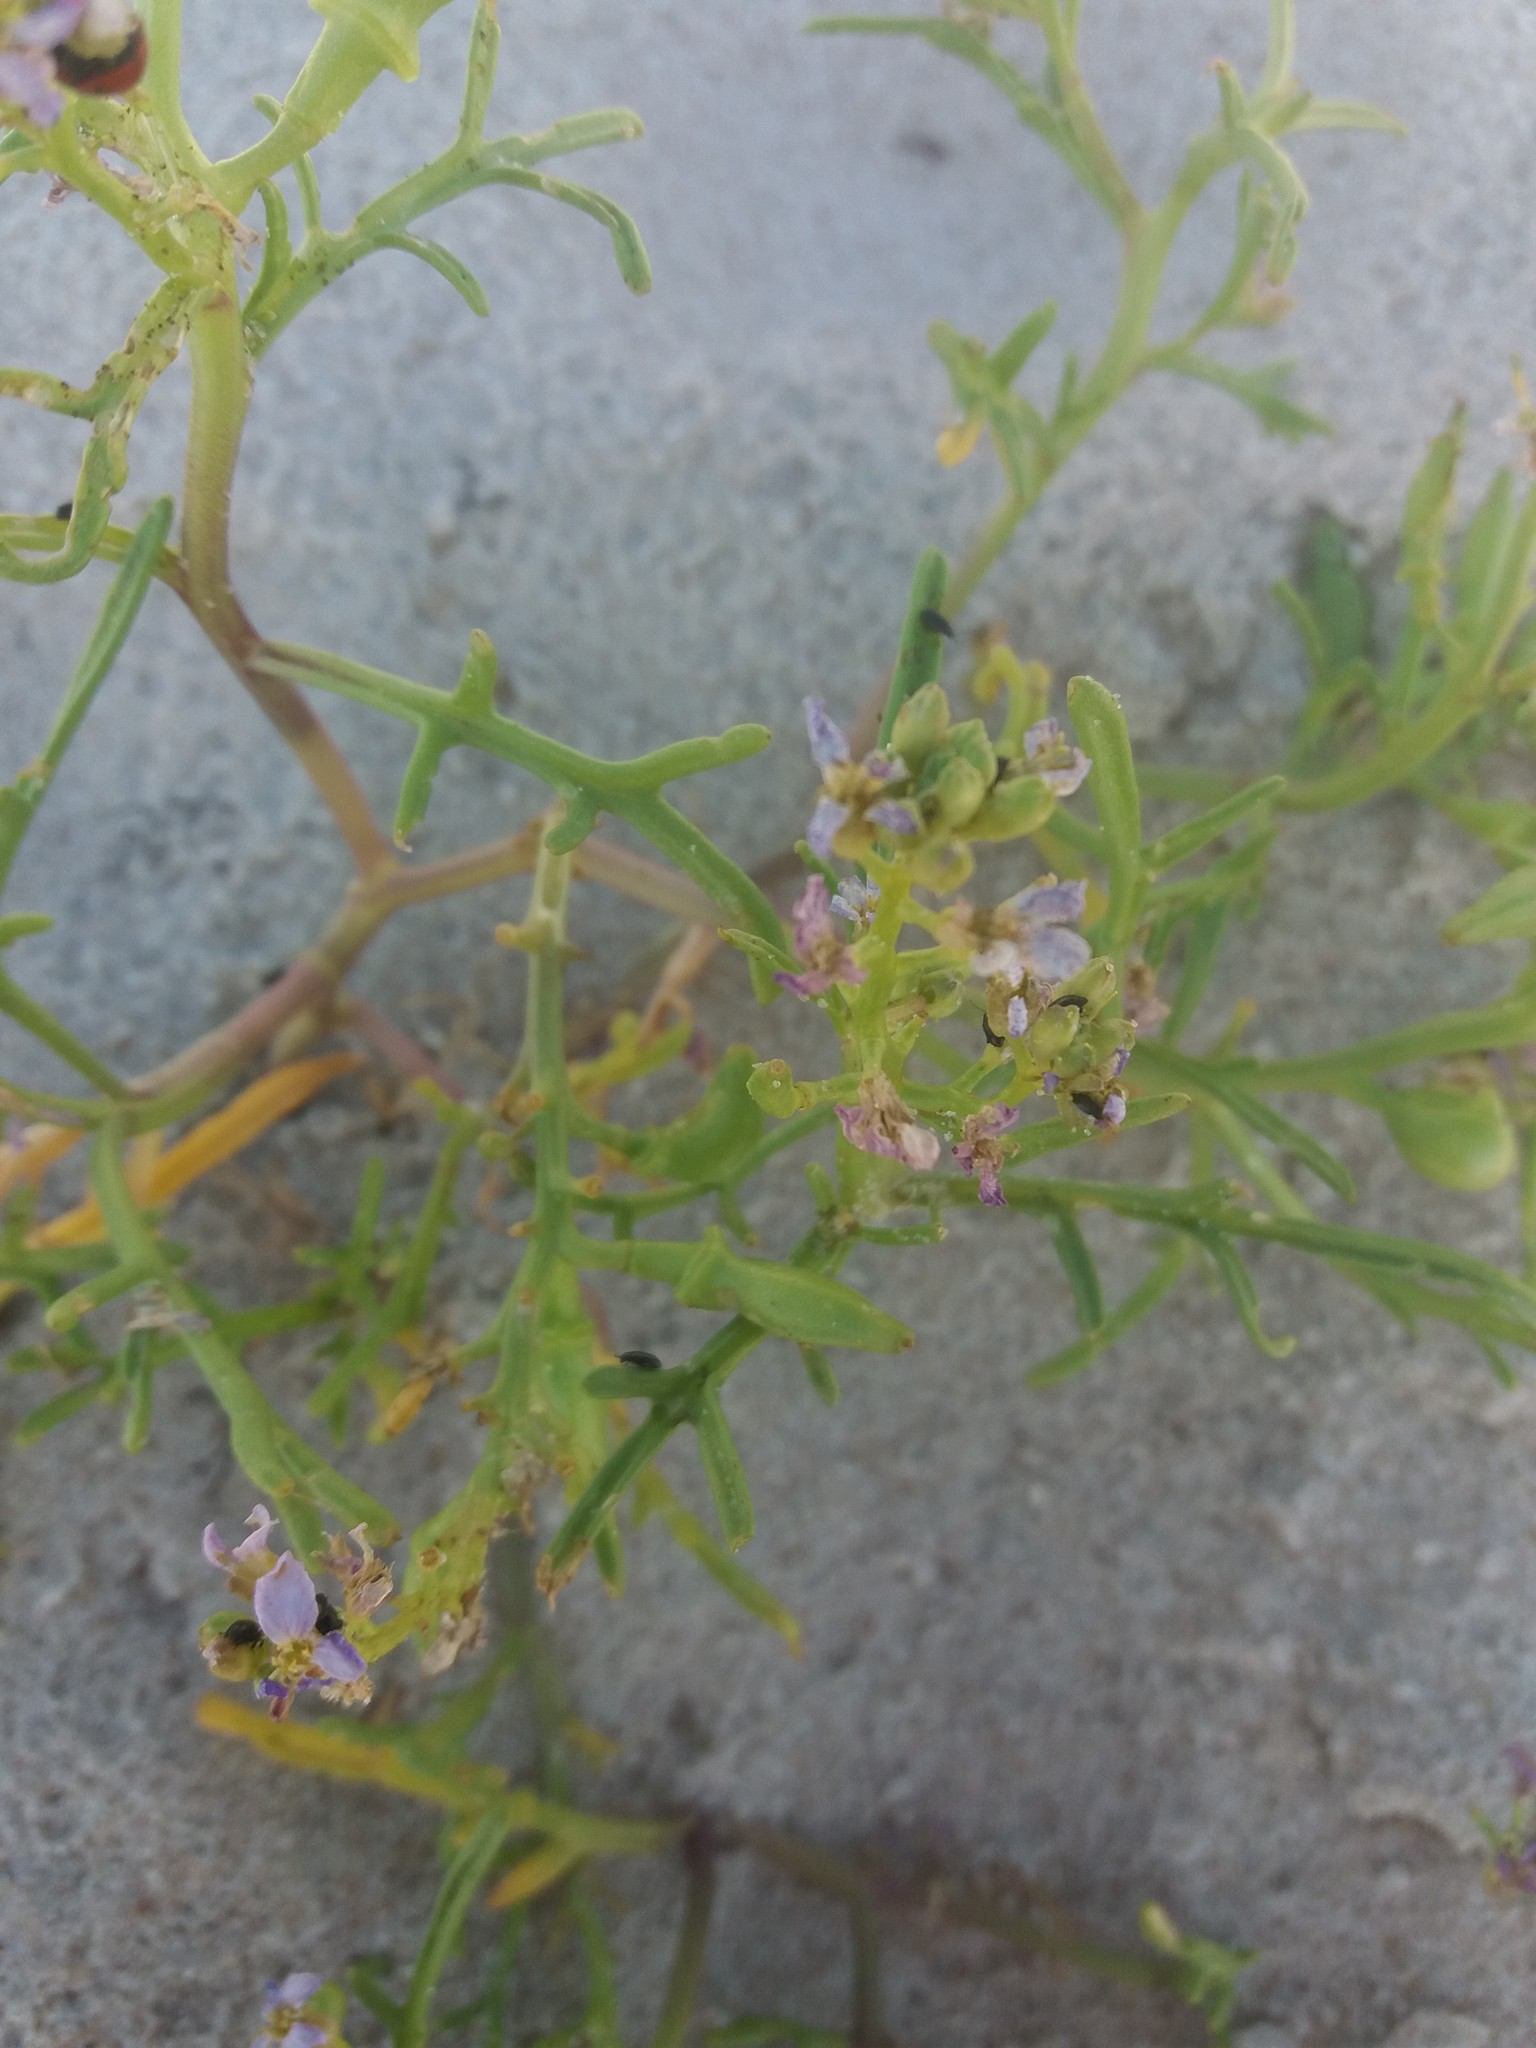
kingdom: Plantae
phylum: Tracheophyta
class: Magnoliopsida
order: Brassicales
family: Brassicaceae
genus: Cakile
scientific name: Cakile maritima
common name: Sea rocket
